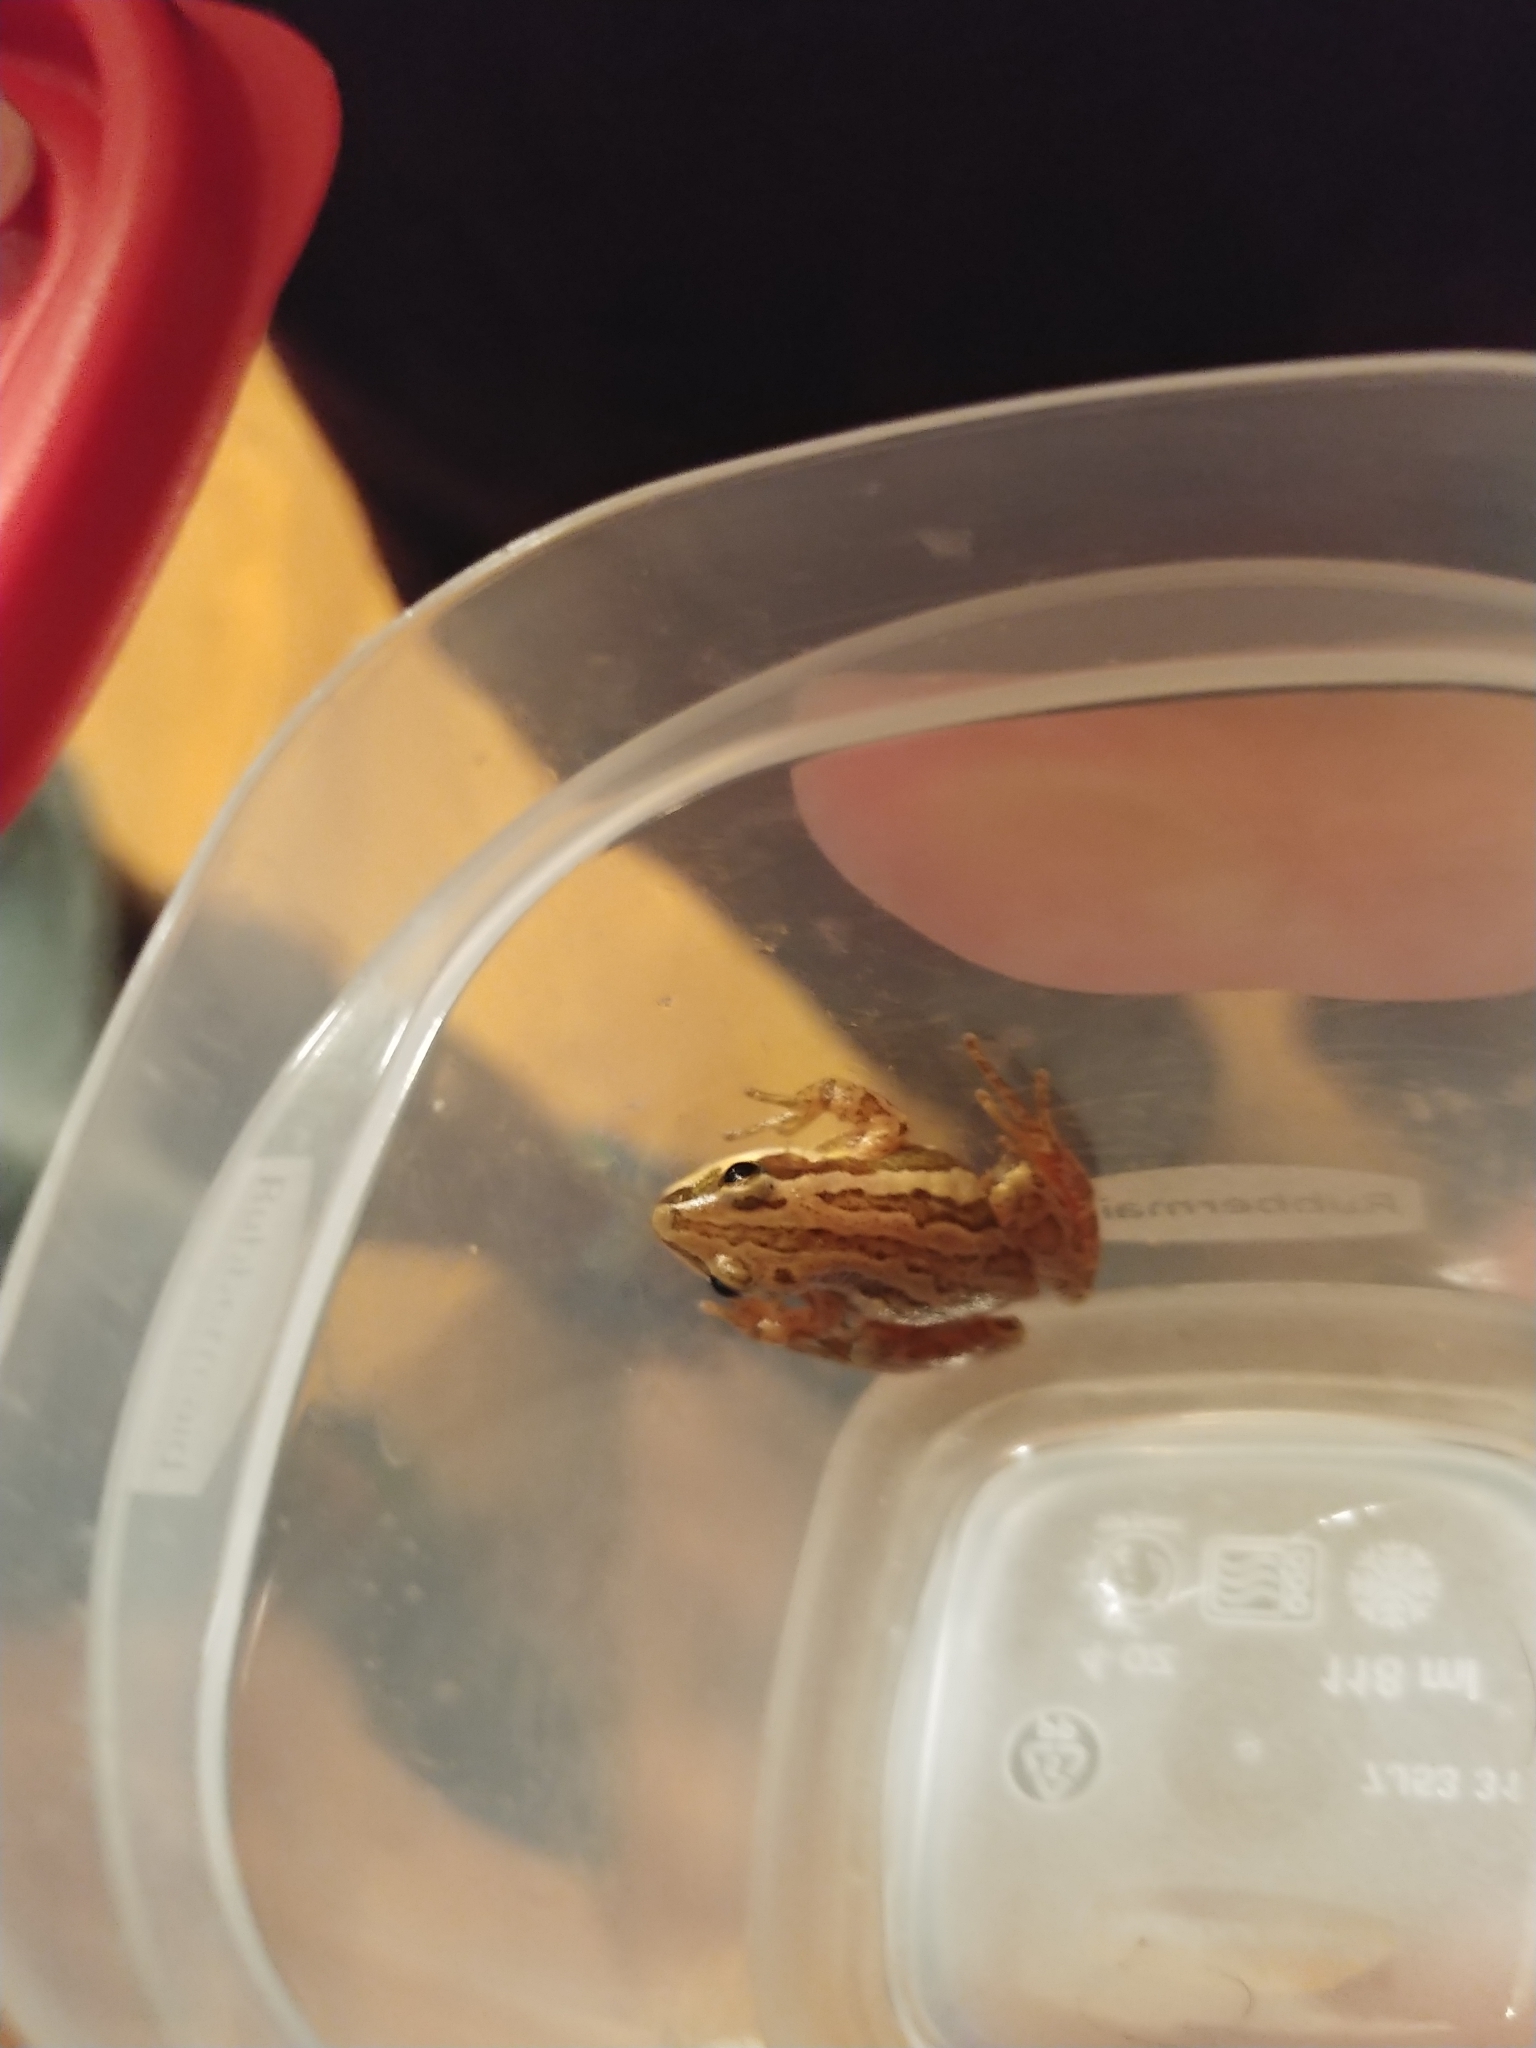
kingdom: Animalia
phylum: Chordata
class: Amphibia
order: Anura
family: Hylidae
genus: Pseudacris
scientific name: Pseudacris maculata
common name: Boreal chorus frog
